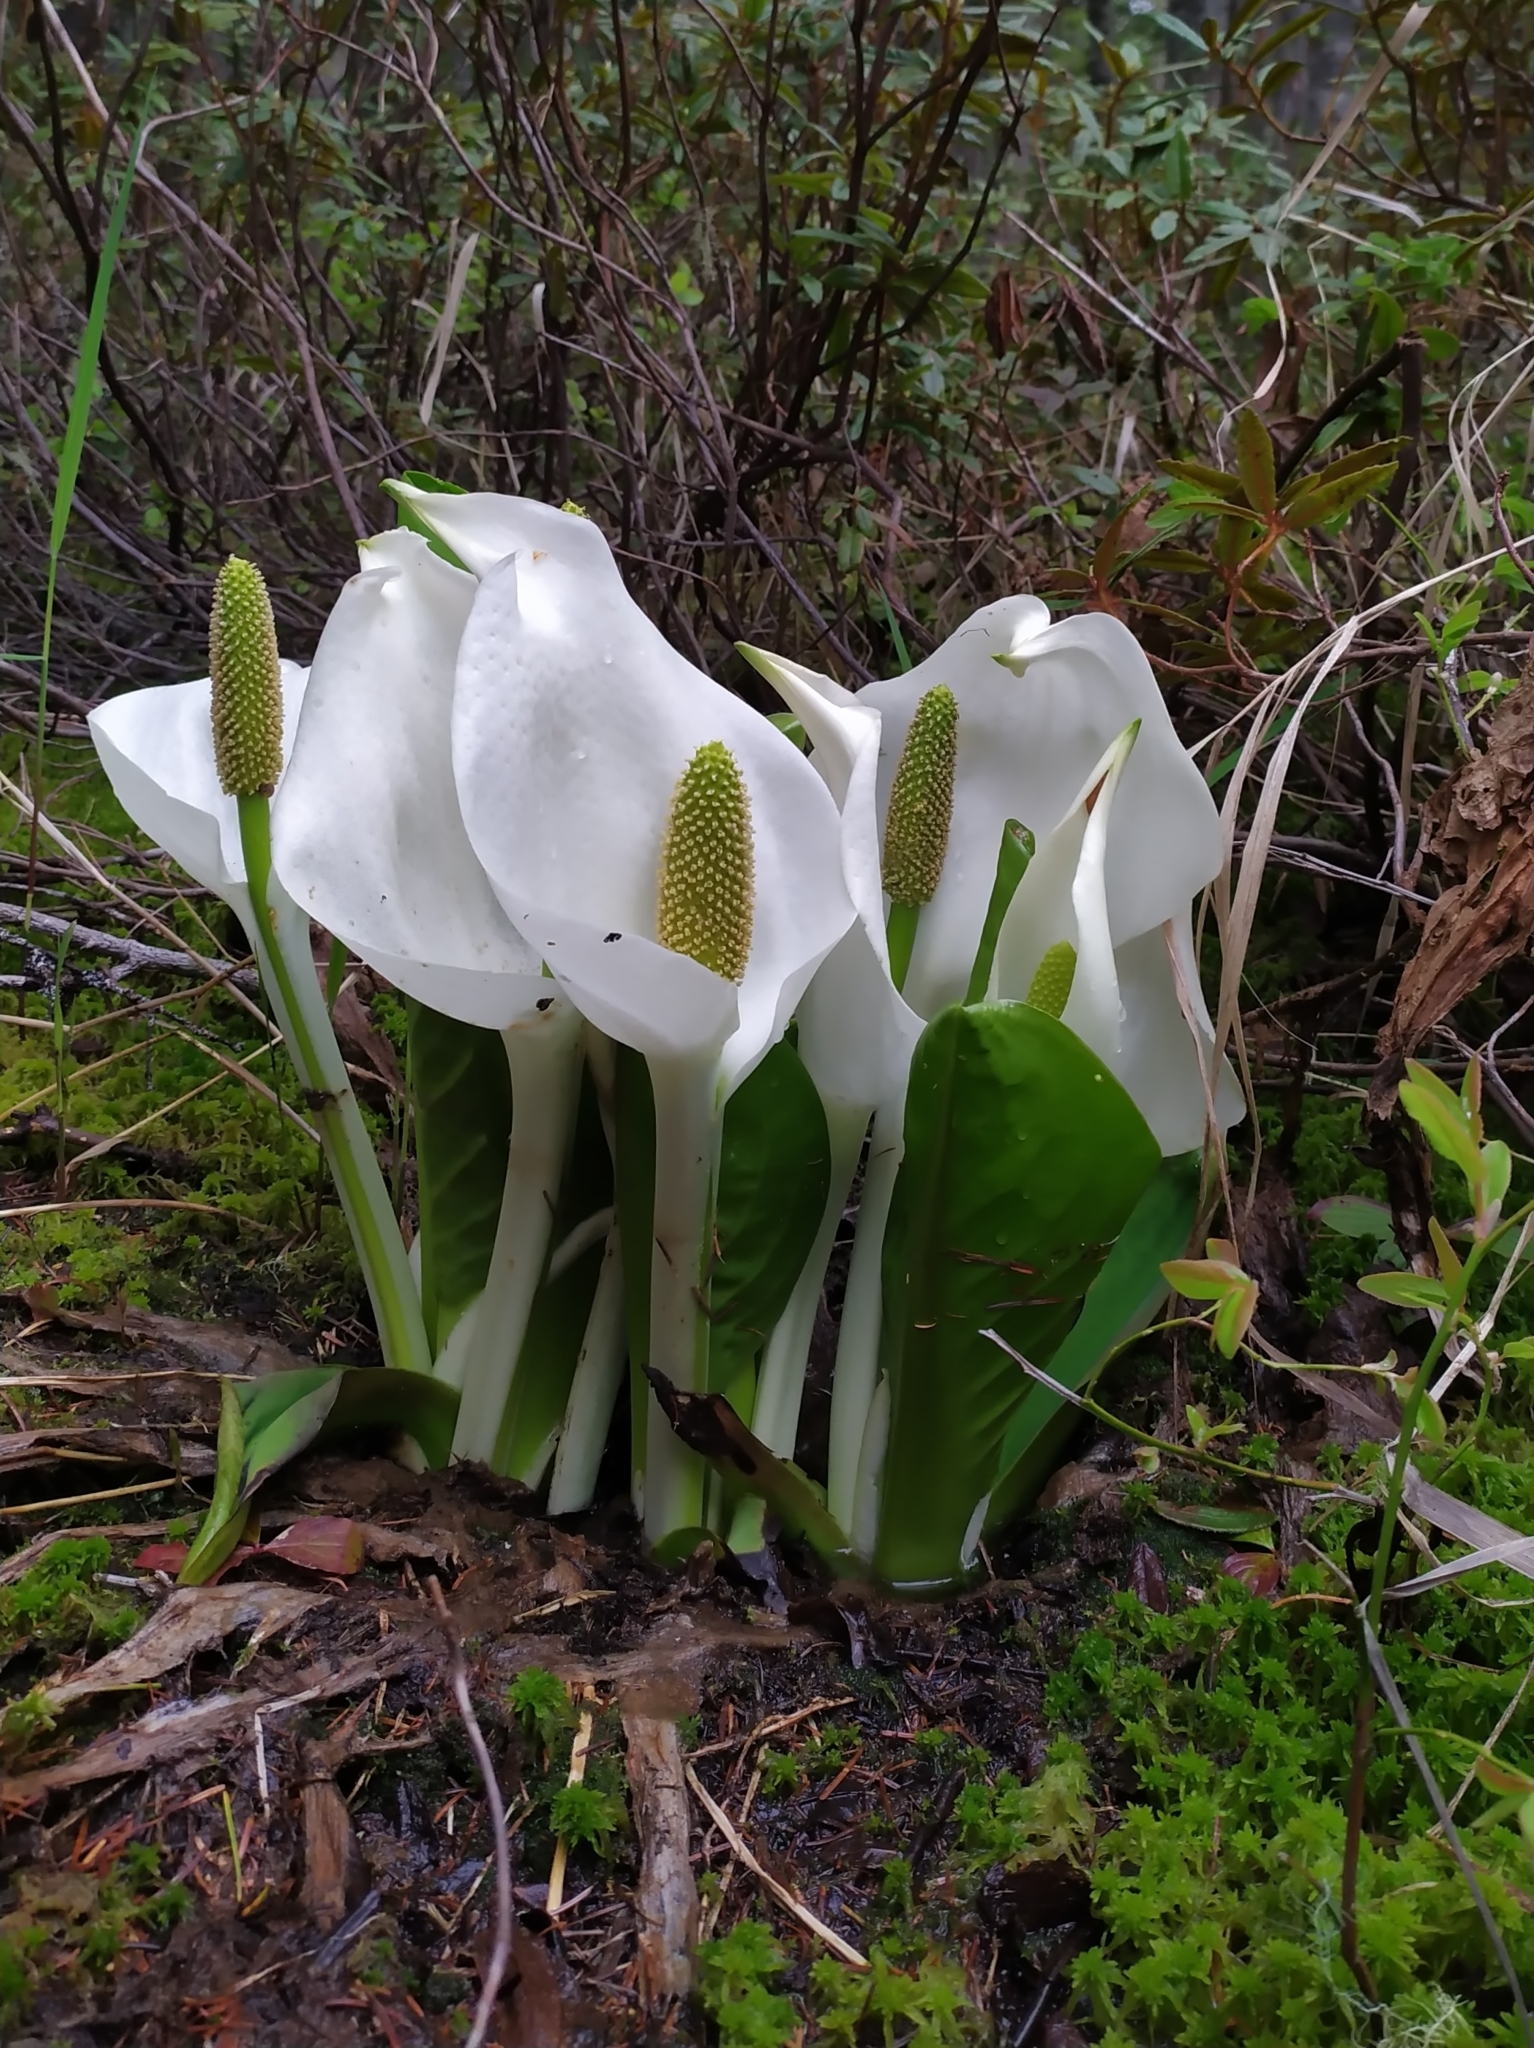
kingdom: Plantae
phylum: Tracheophyta
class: Liliopsida
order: Alismatales
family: Araceae
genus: Lysichiton
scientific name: Lysichiton camtschatcensis
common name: Asian skunk-cabbage
